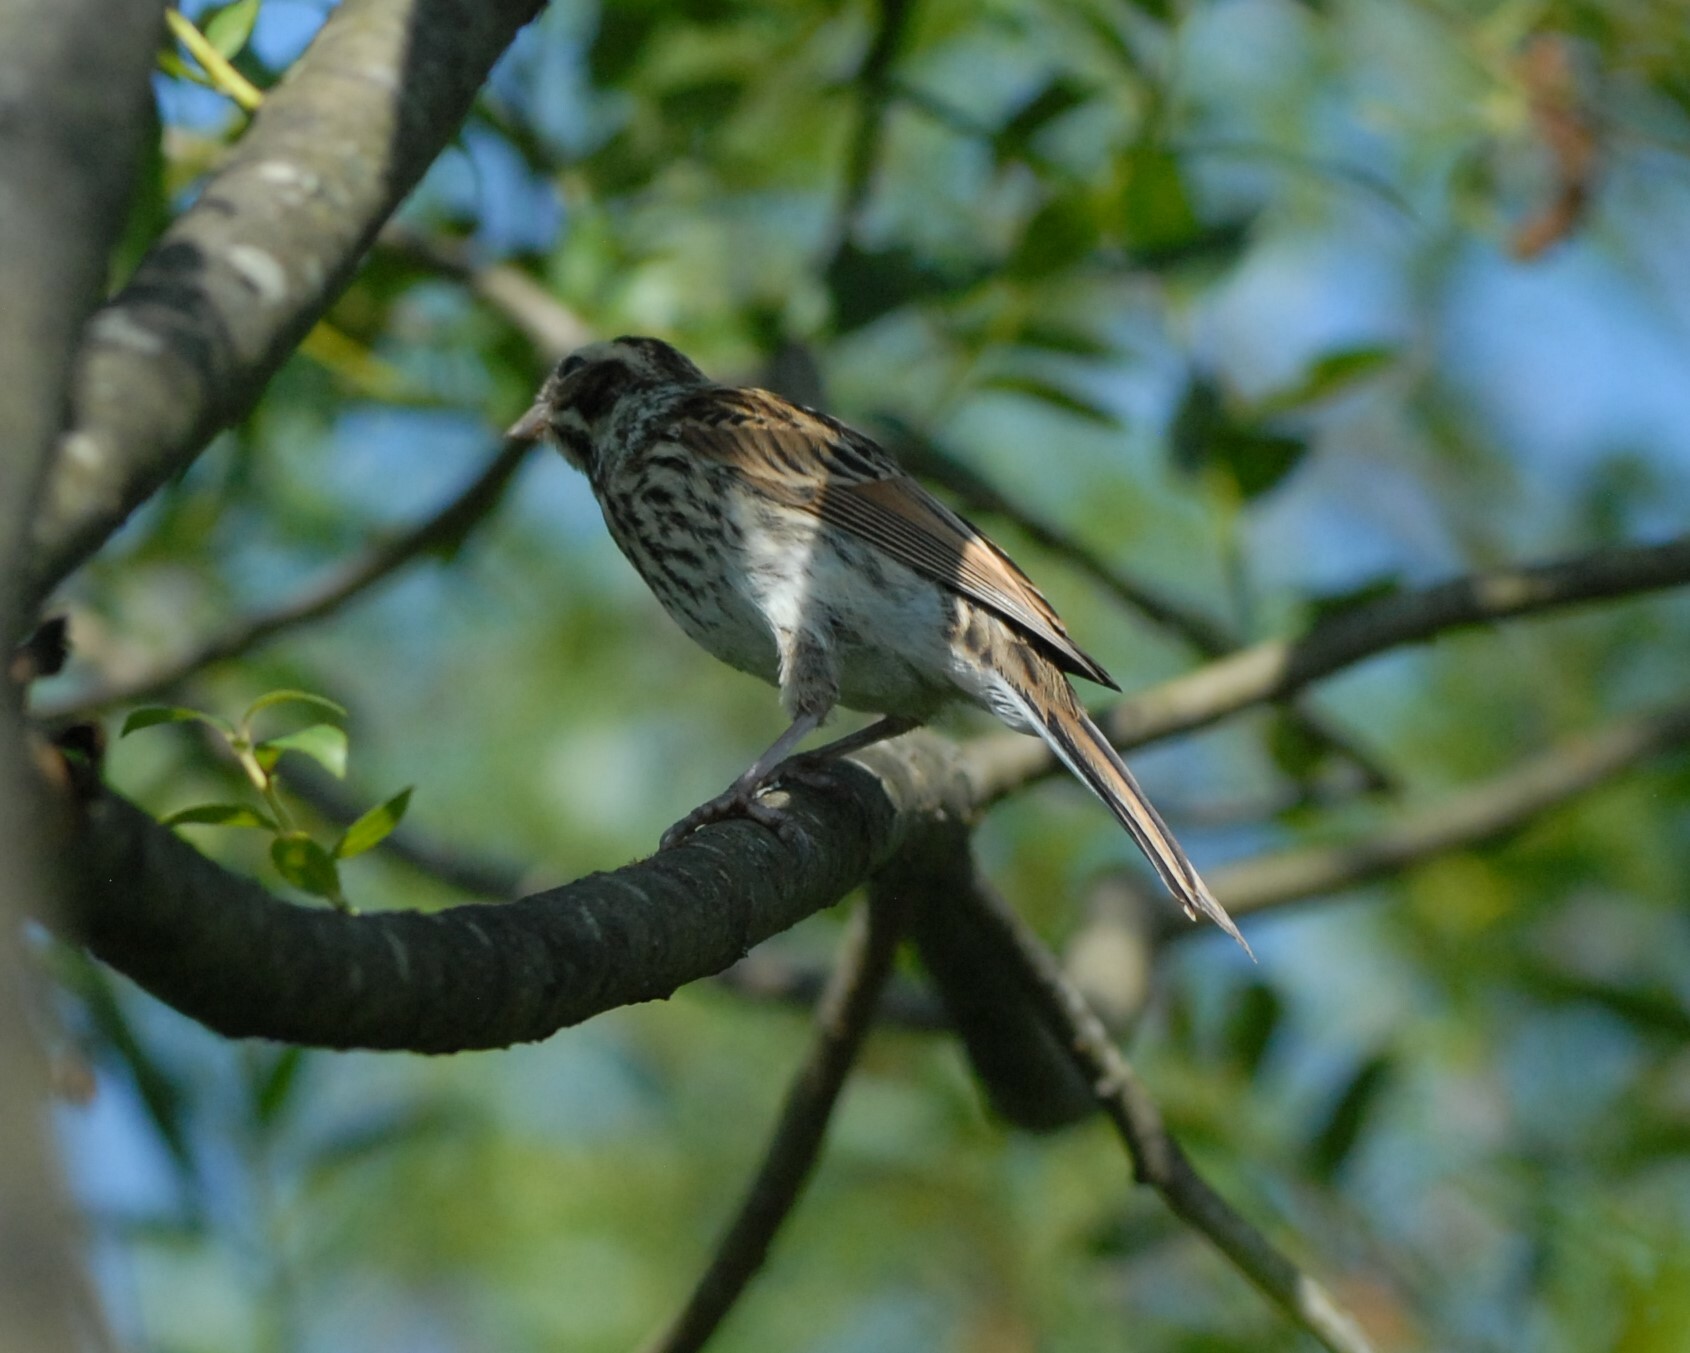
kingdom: Animalia
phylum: Chordata
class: Aves
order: Passeriformes
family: Emberizidae
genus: Emberiza
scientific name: Emberiza schoeniclus
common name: Reed bunting
